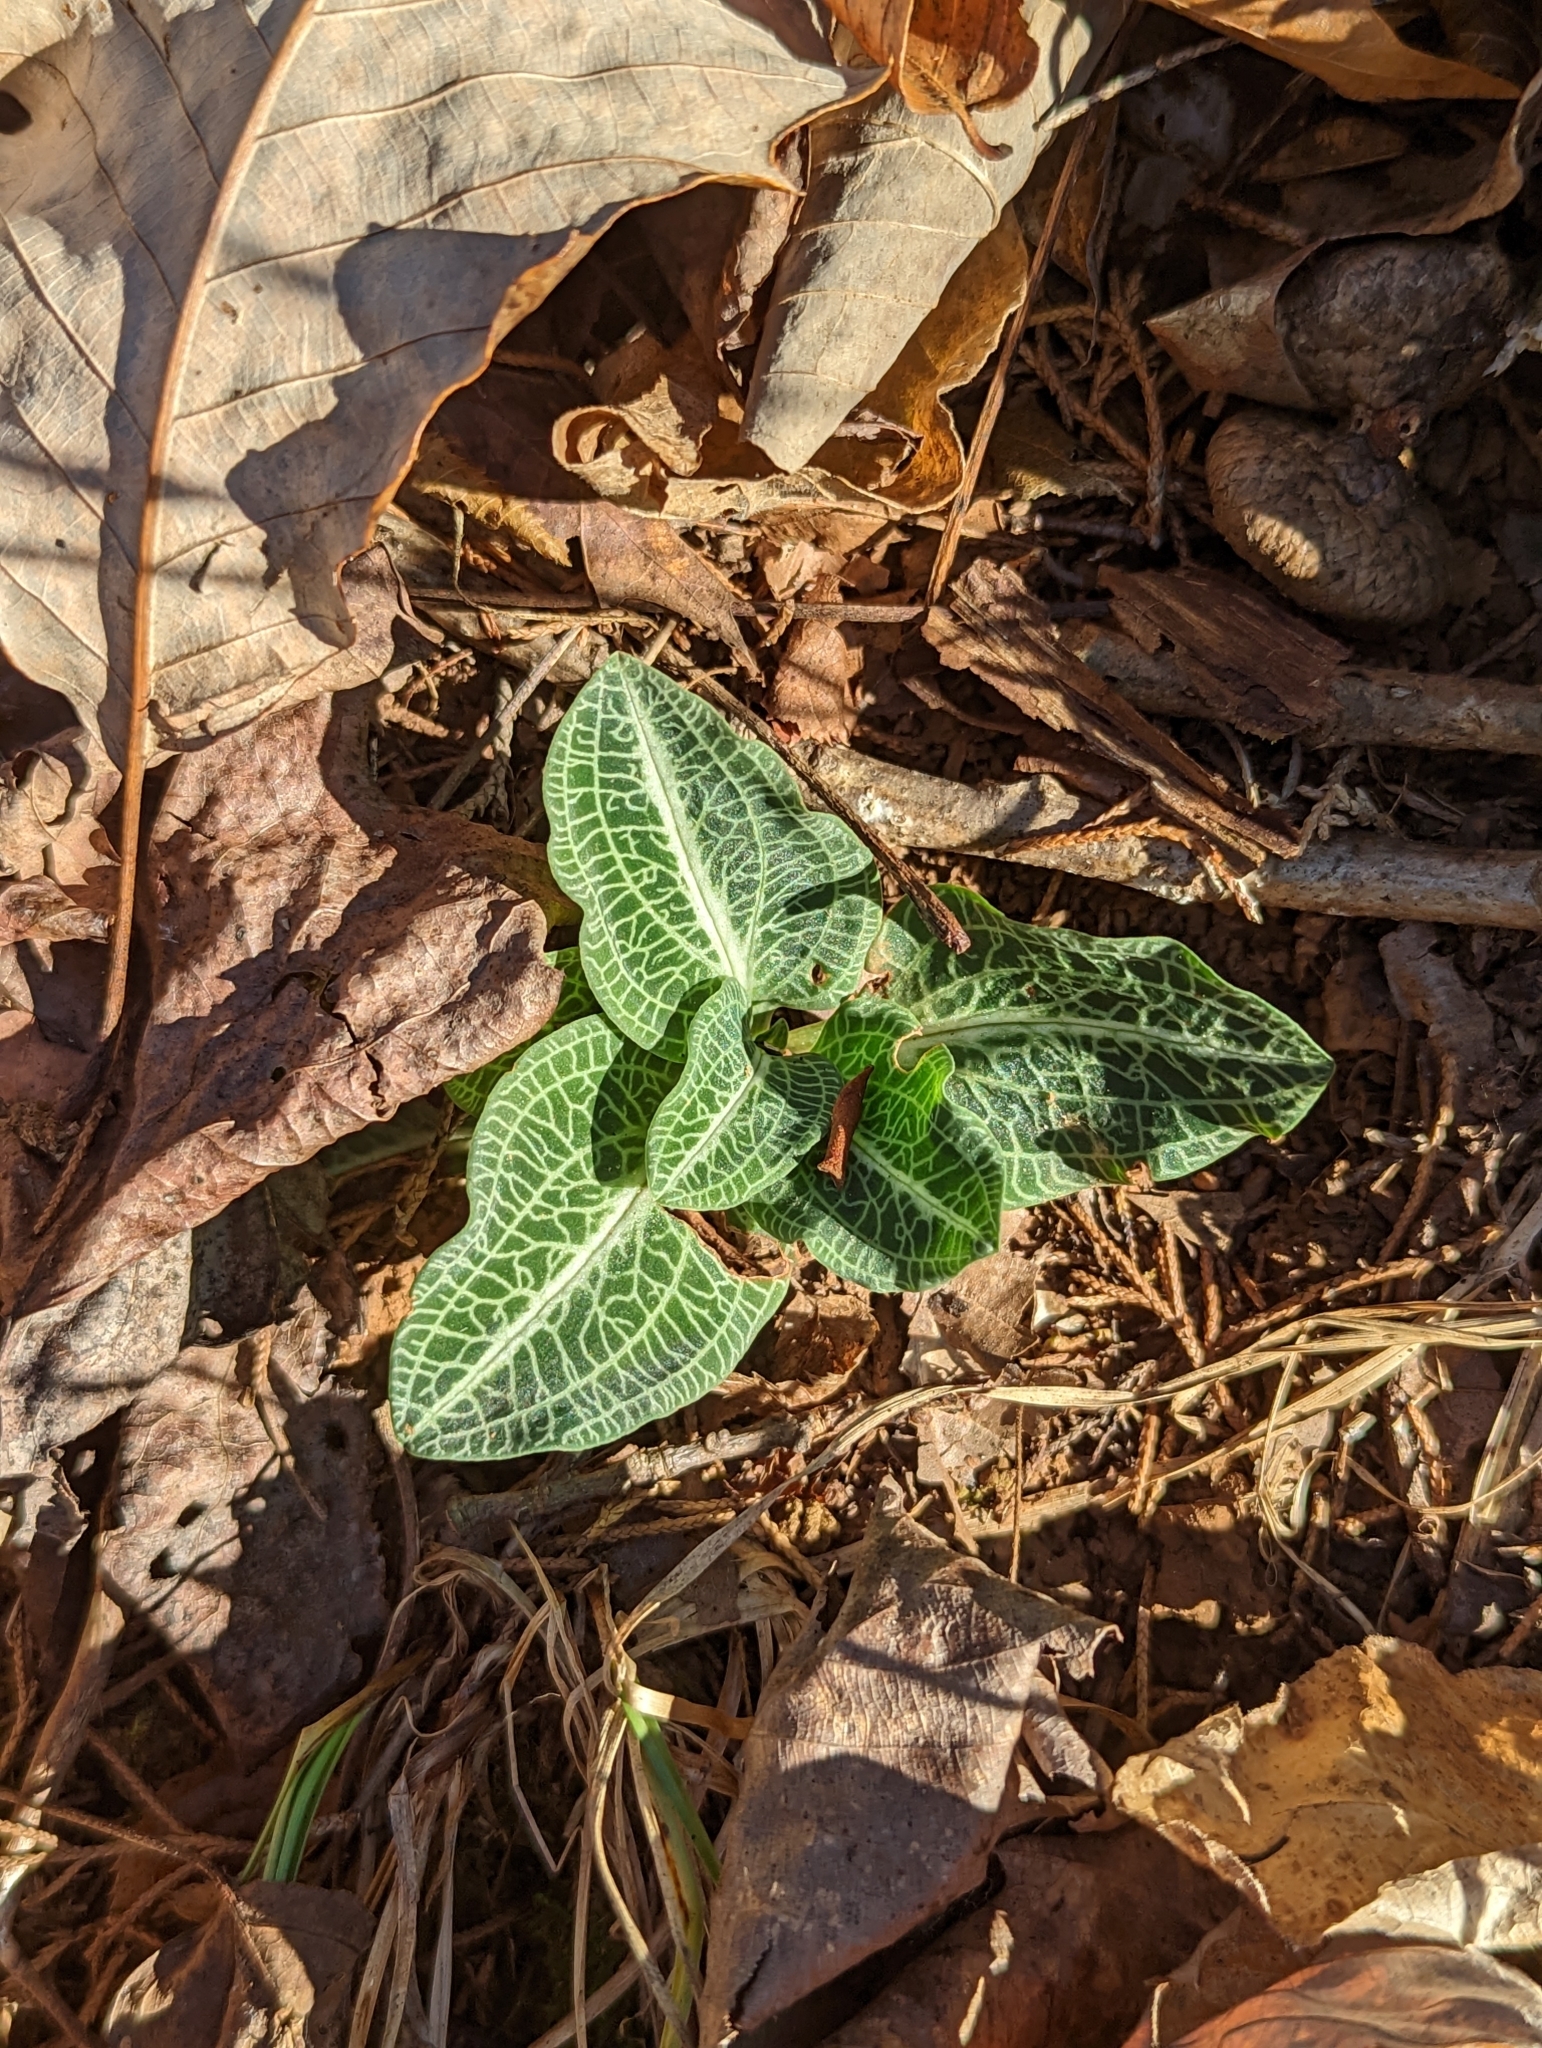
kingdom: Plantae
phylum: Tracheophyta
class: Liliopsida
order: Asparagales
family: Orchidaceae
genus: Goodyera
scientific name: Goodyera pubescens
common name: Downy rattlesnake-plantain
